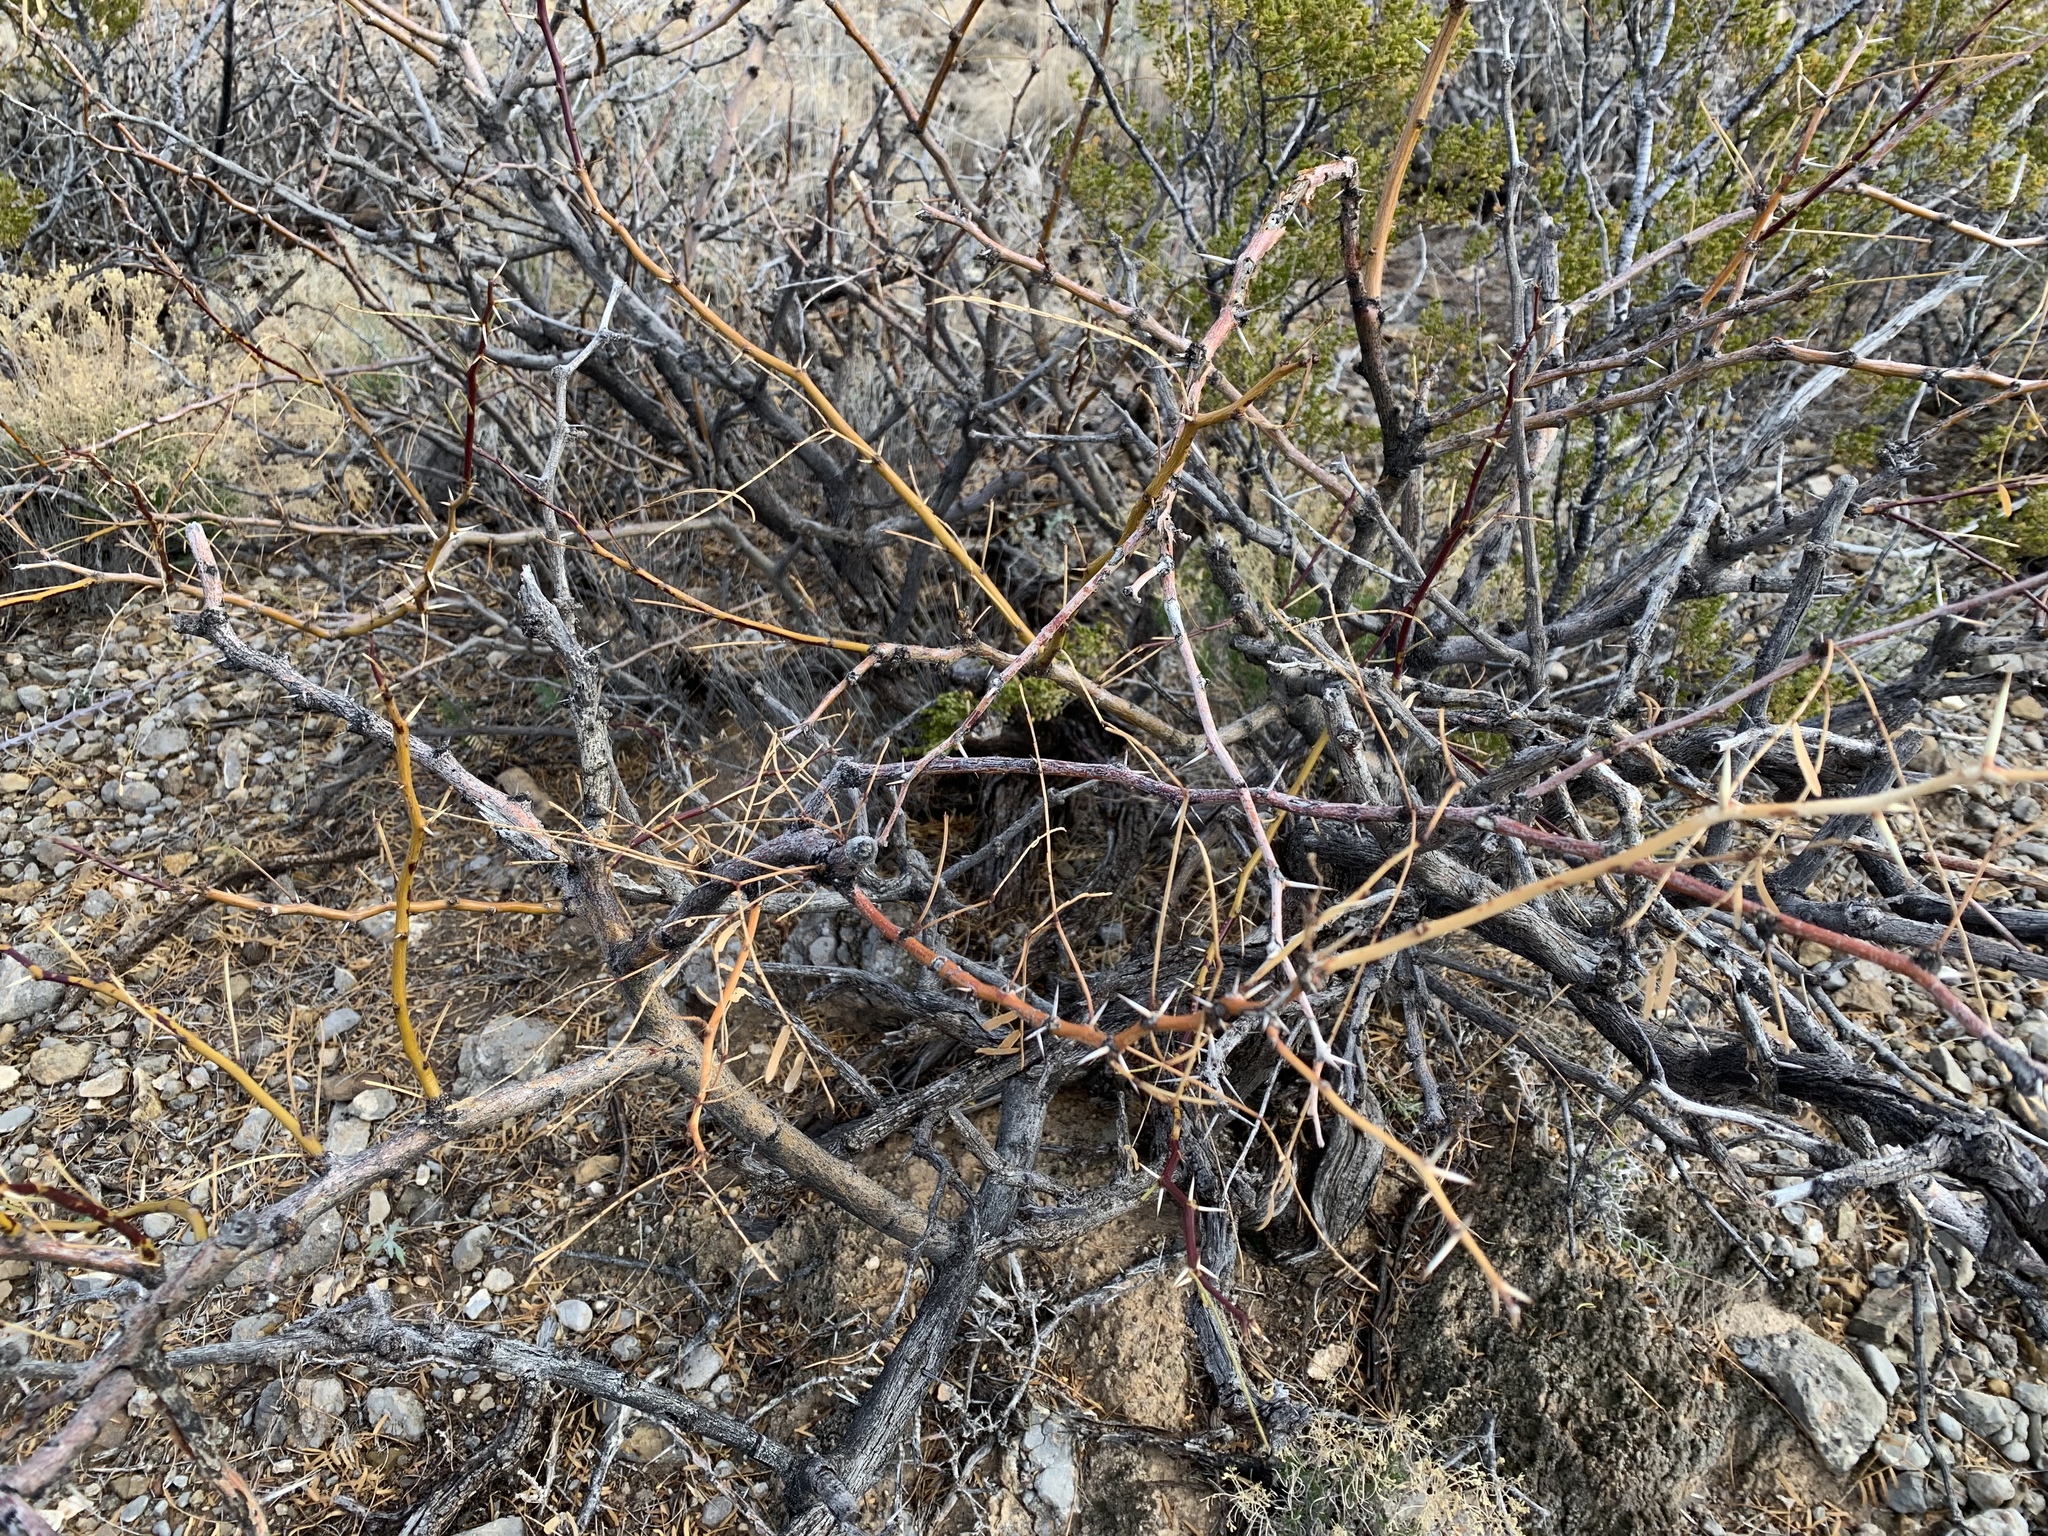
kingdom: Plantae
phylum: Tracheophyta
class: Magnoliopsida
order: Fabales
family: Fabaceae
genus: Prosopis
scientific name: Prosopis glandulosa
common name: Honey mesquite
